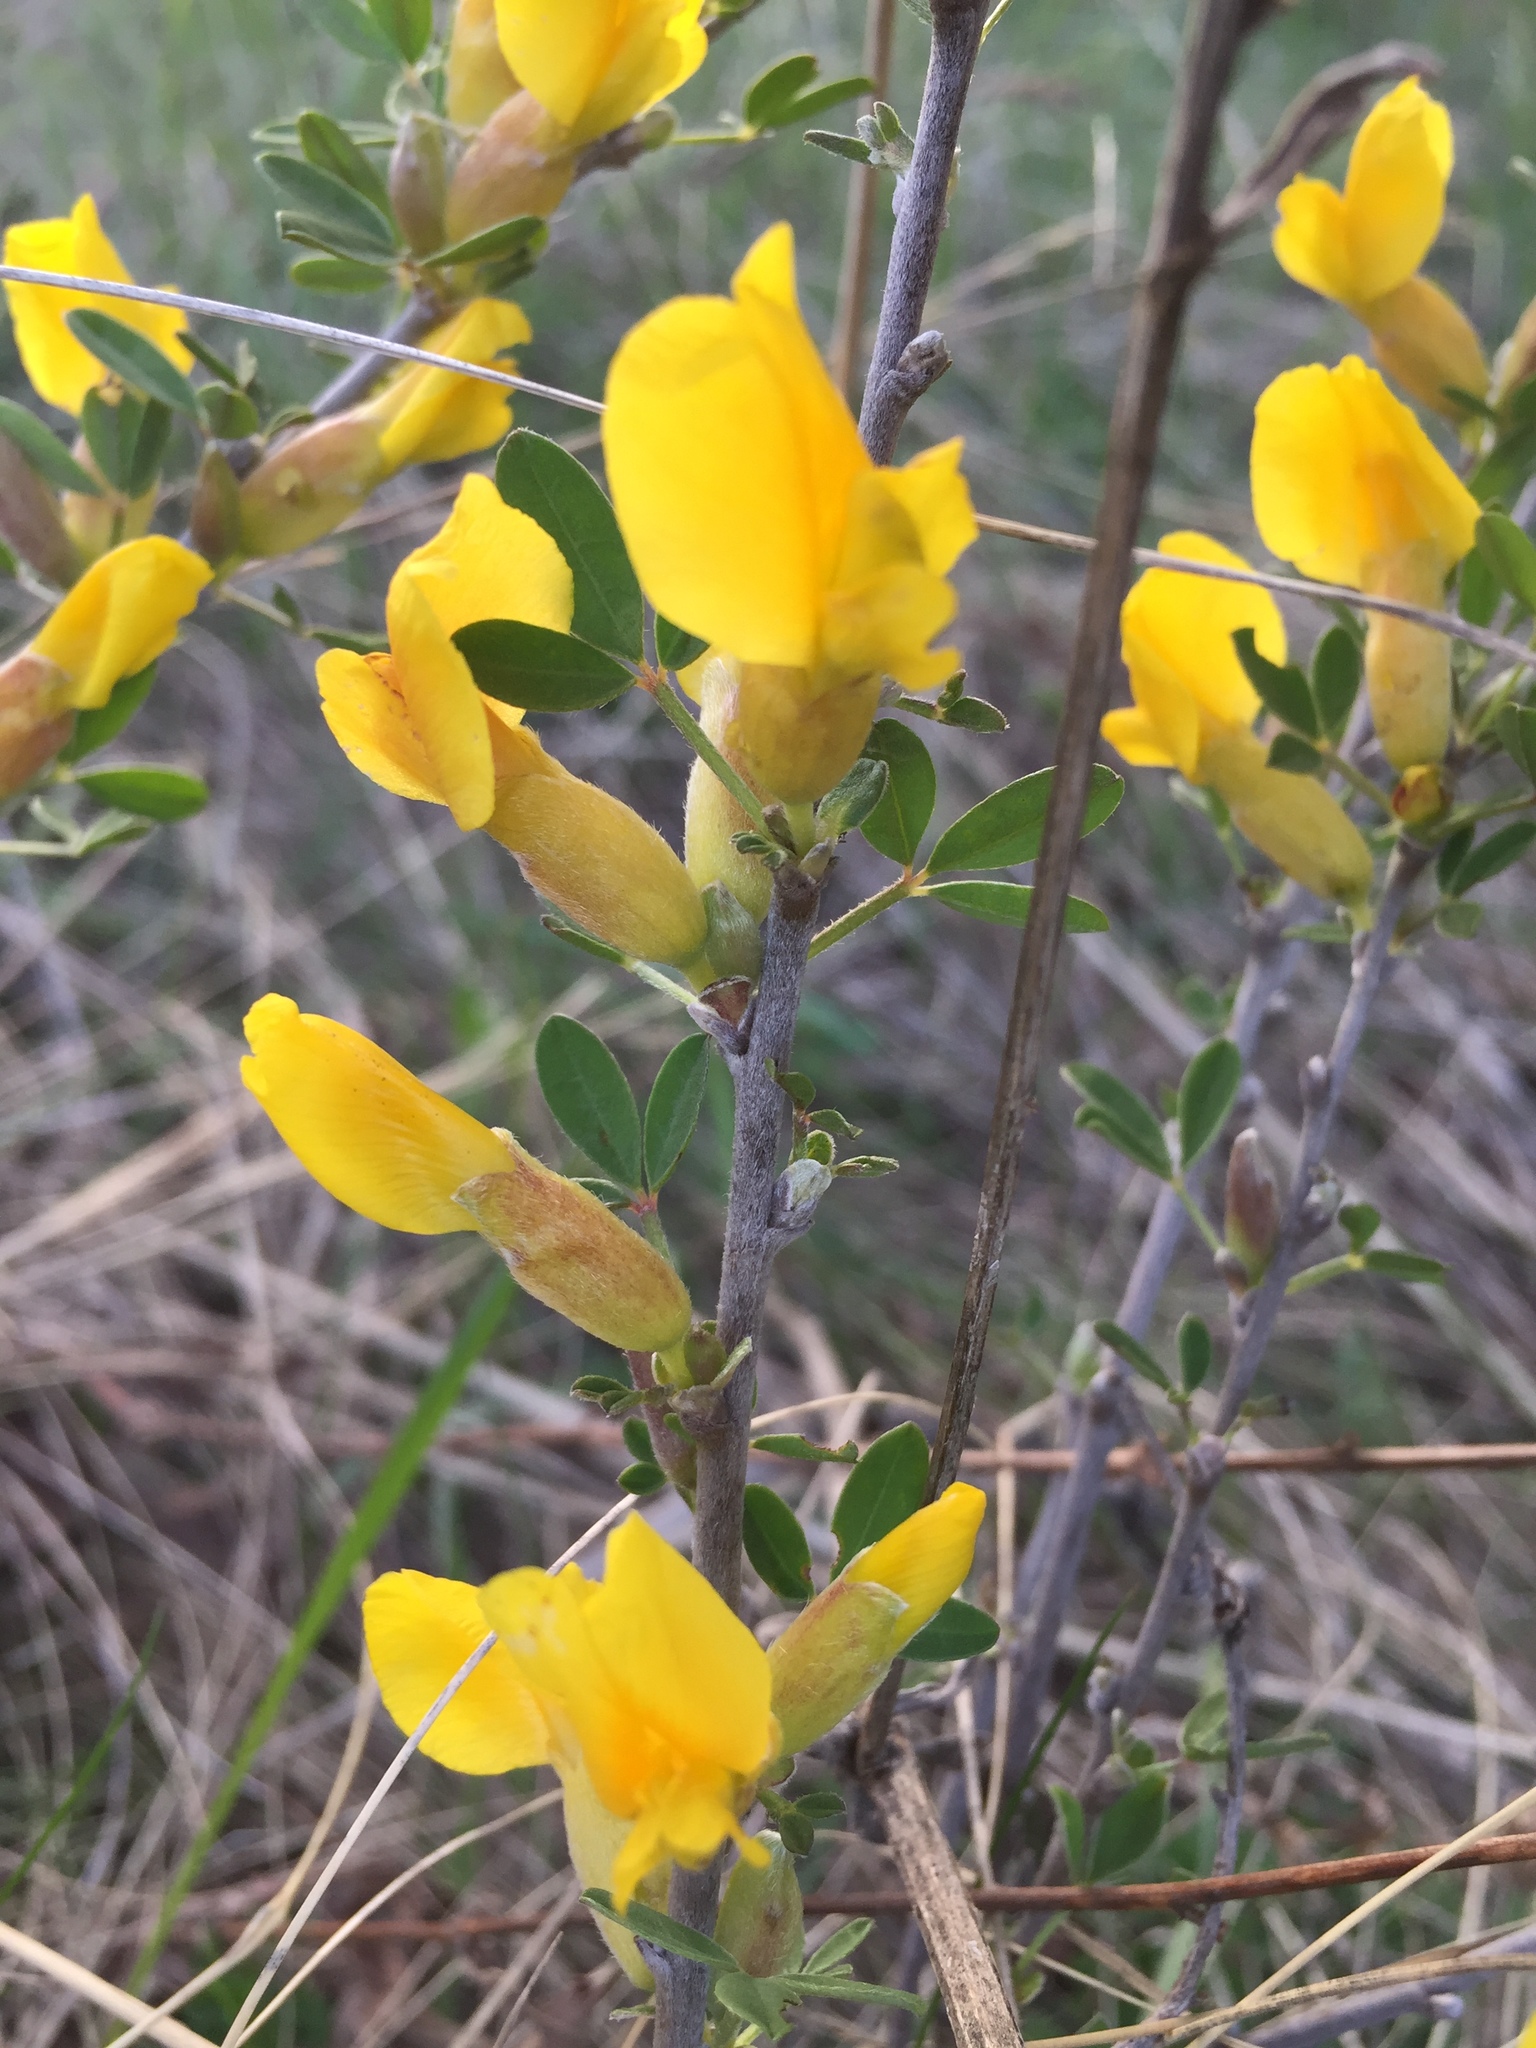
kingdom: Plantae
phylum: Tracheophyta
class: Magnoliopsida
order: Fabales
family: Fabaceae
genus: Chamaecytisus
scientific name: Chamaecytisus ruthenicus
